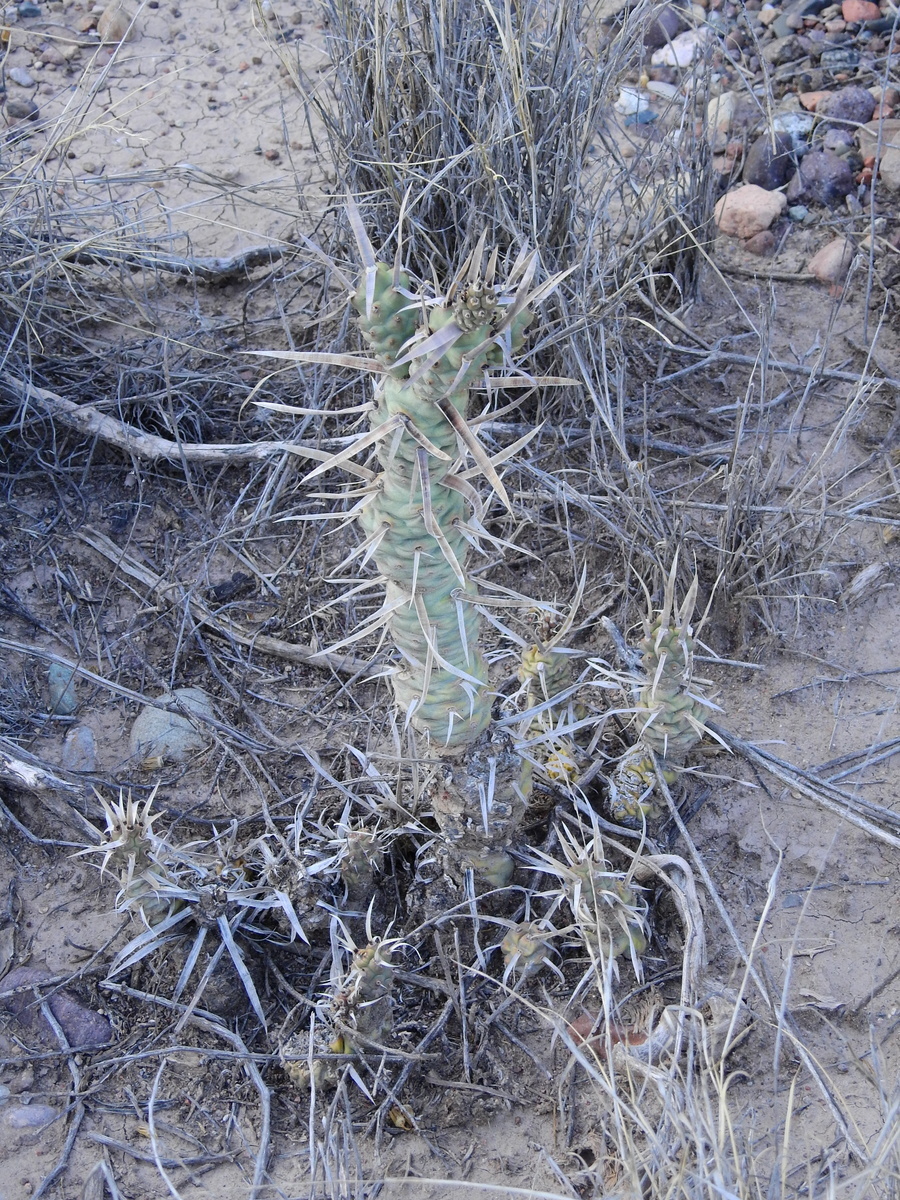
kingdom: Plantae
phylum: Tracheophyta
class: Magnoliopsida
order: Caryophyllales
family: Cactaceae
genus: Tephrocactus
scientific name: Tephrocactus articulatus
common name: Paper cactus
